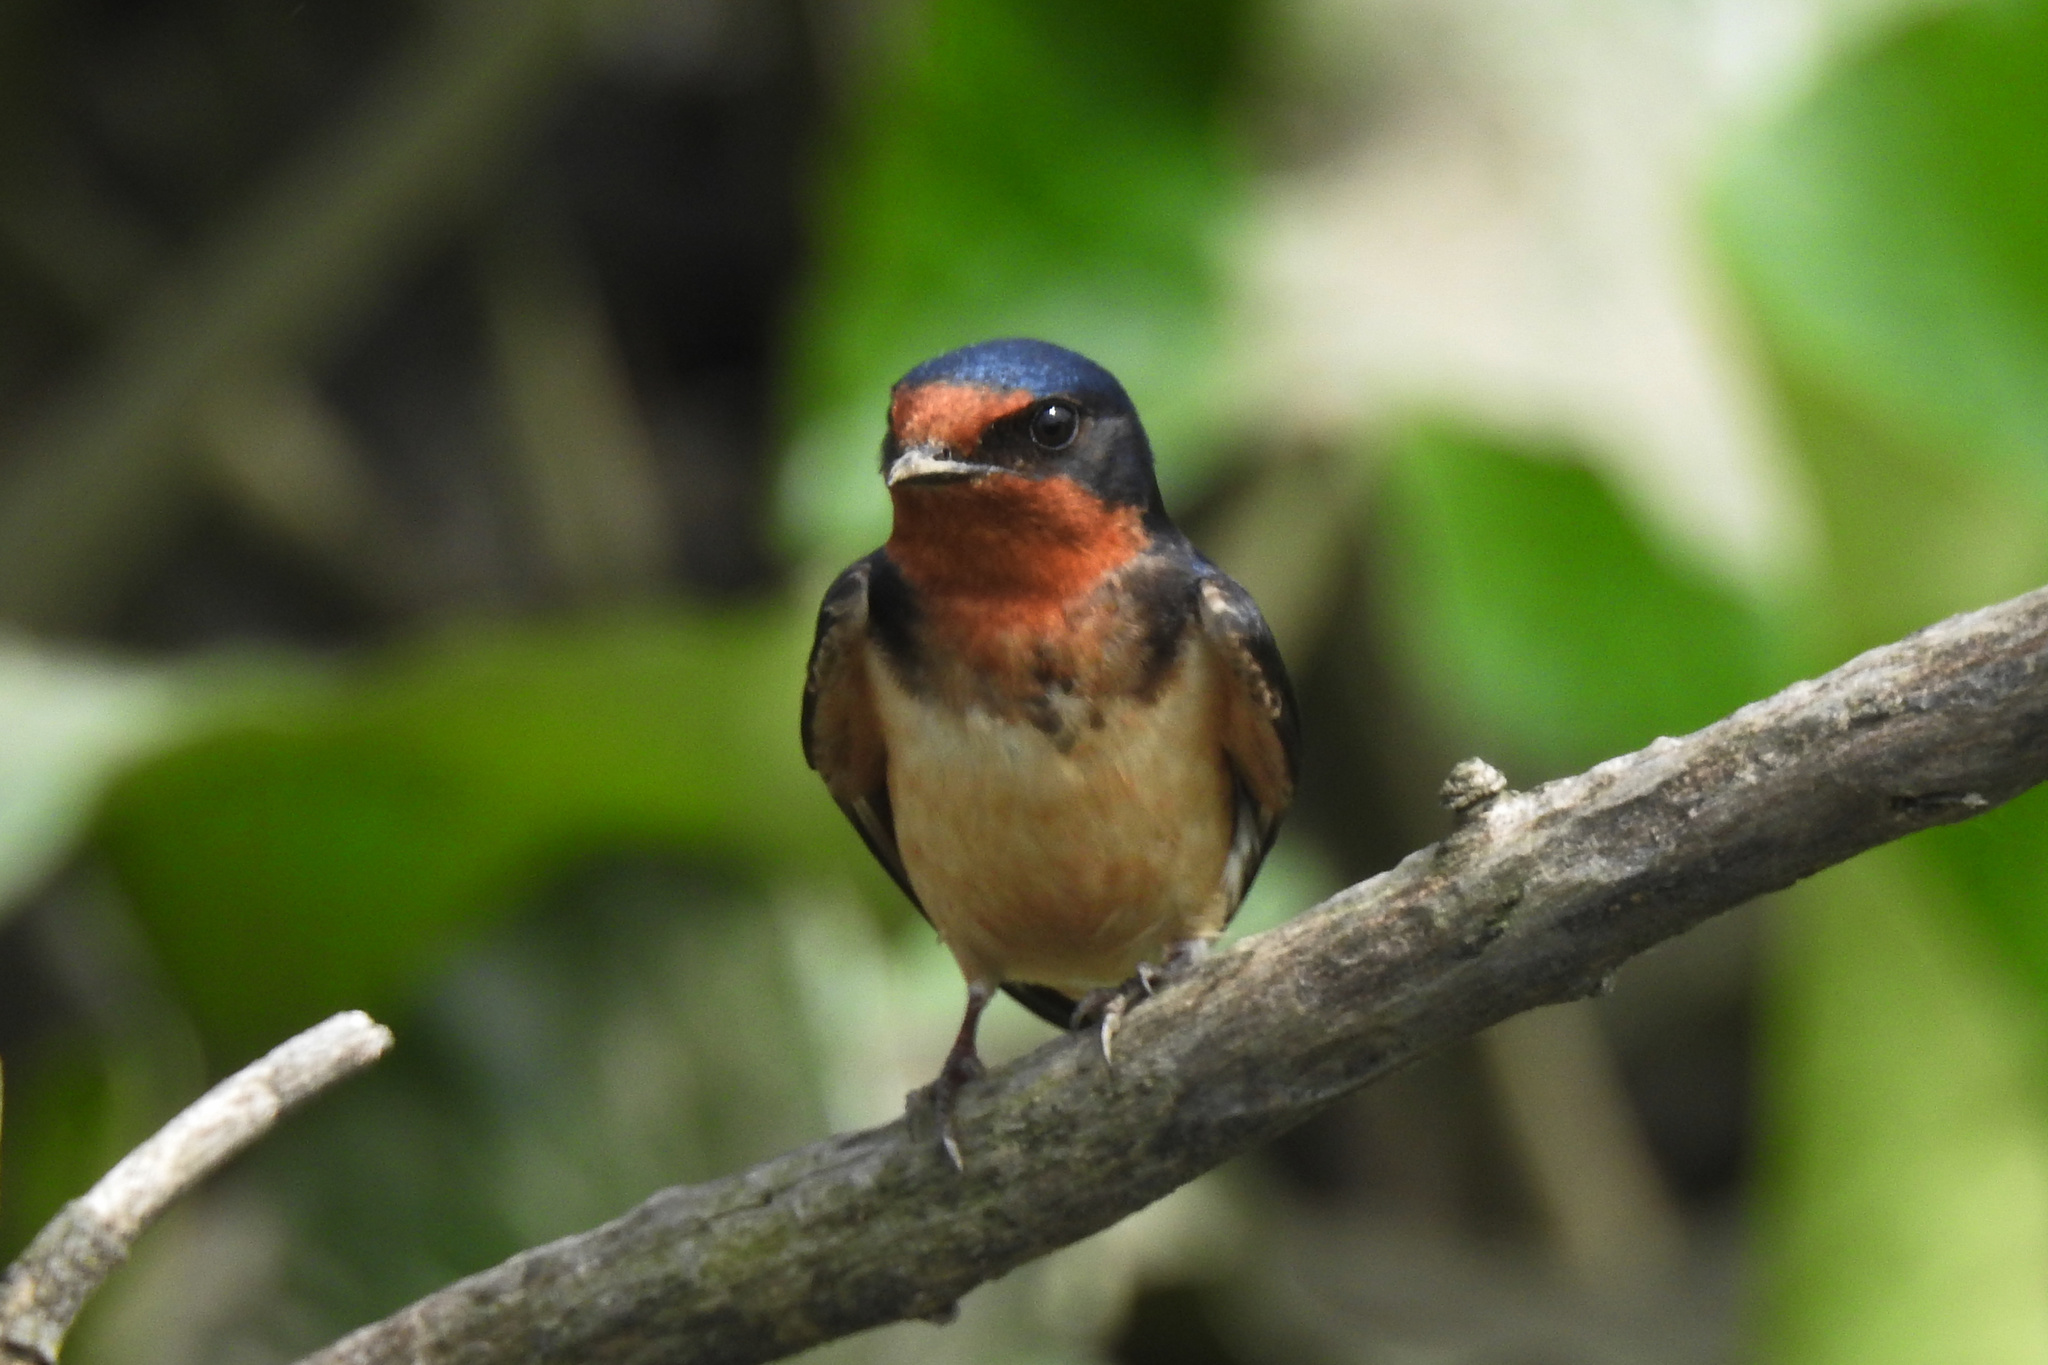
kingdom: Animalia
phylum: Chordata
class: Aves
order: Passeriformes
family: Hirundinidae
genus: Hirundo
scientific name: Hirundo rustica
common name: Barn swallow
